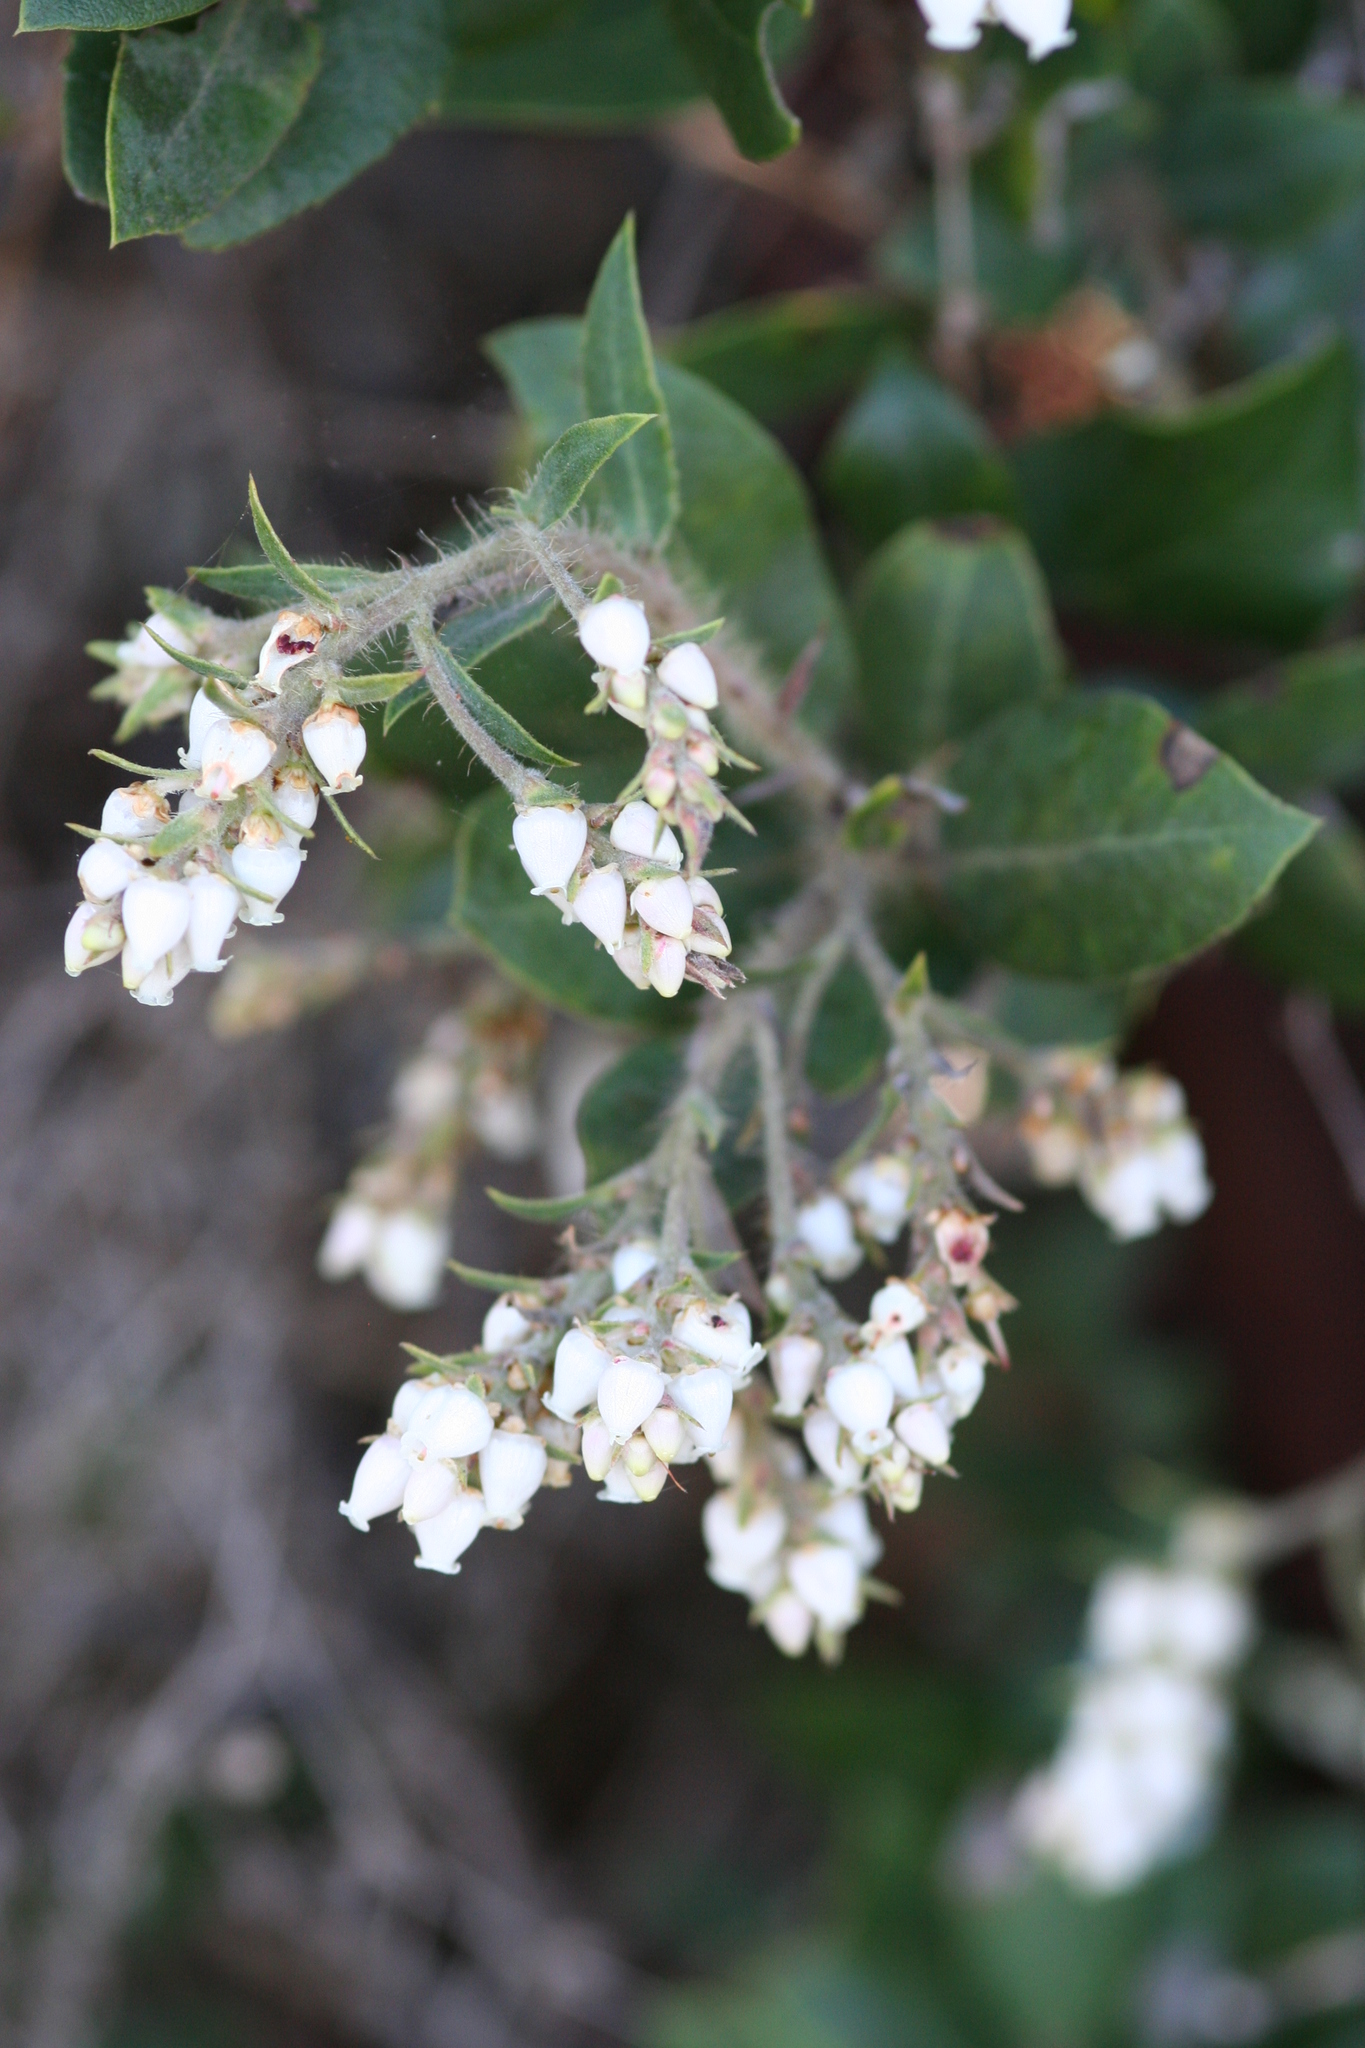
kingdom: Plantae
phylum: Tracheophyta
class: Magnoliopsida
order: Ericales
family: Ericaceae
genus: Arctostaphylos
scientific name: Arctostaphylos crustacea
